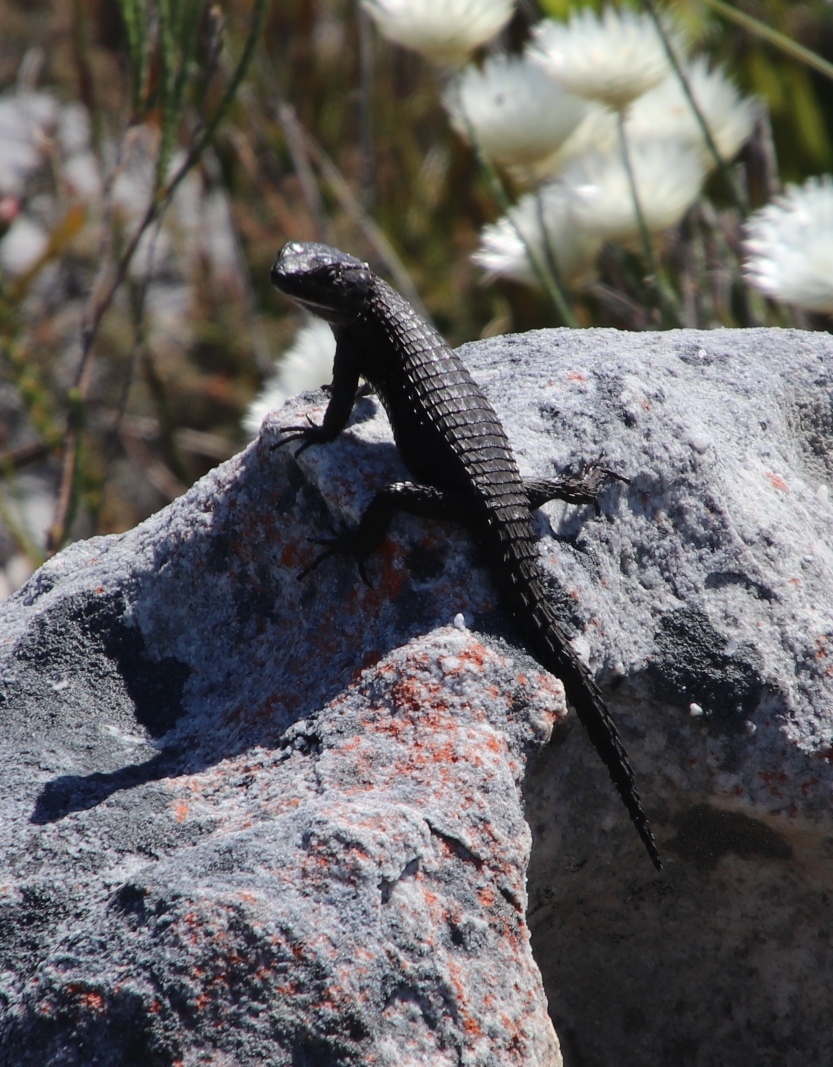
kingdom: Animalia
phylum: Chordata
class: Squamata
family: Cordylidae
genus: Cordylus
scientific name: Cordylus niger
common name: Black girdled lizard
